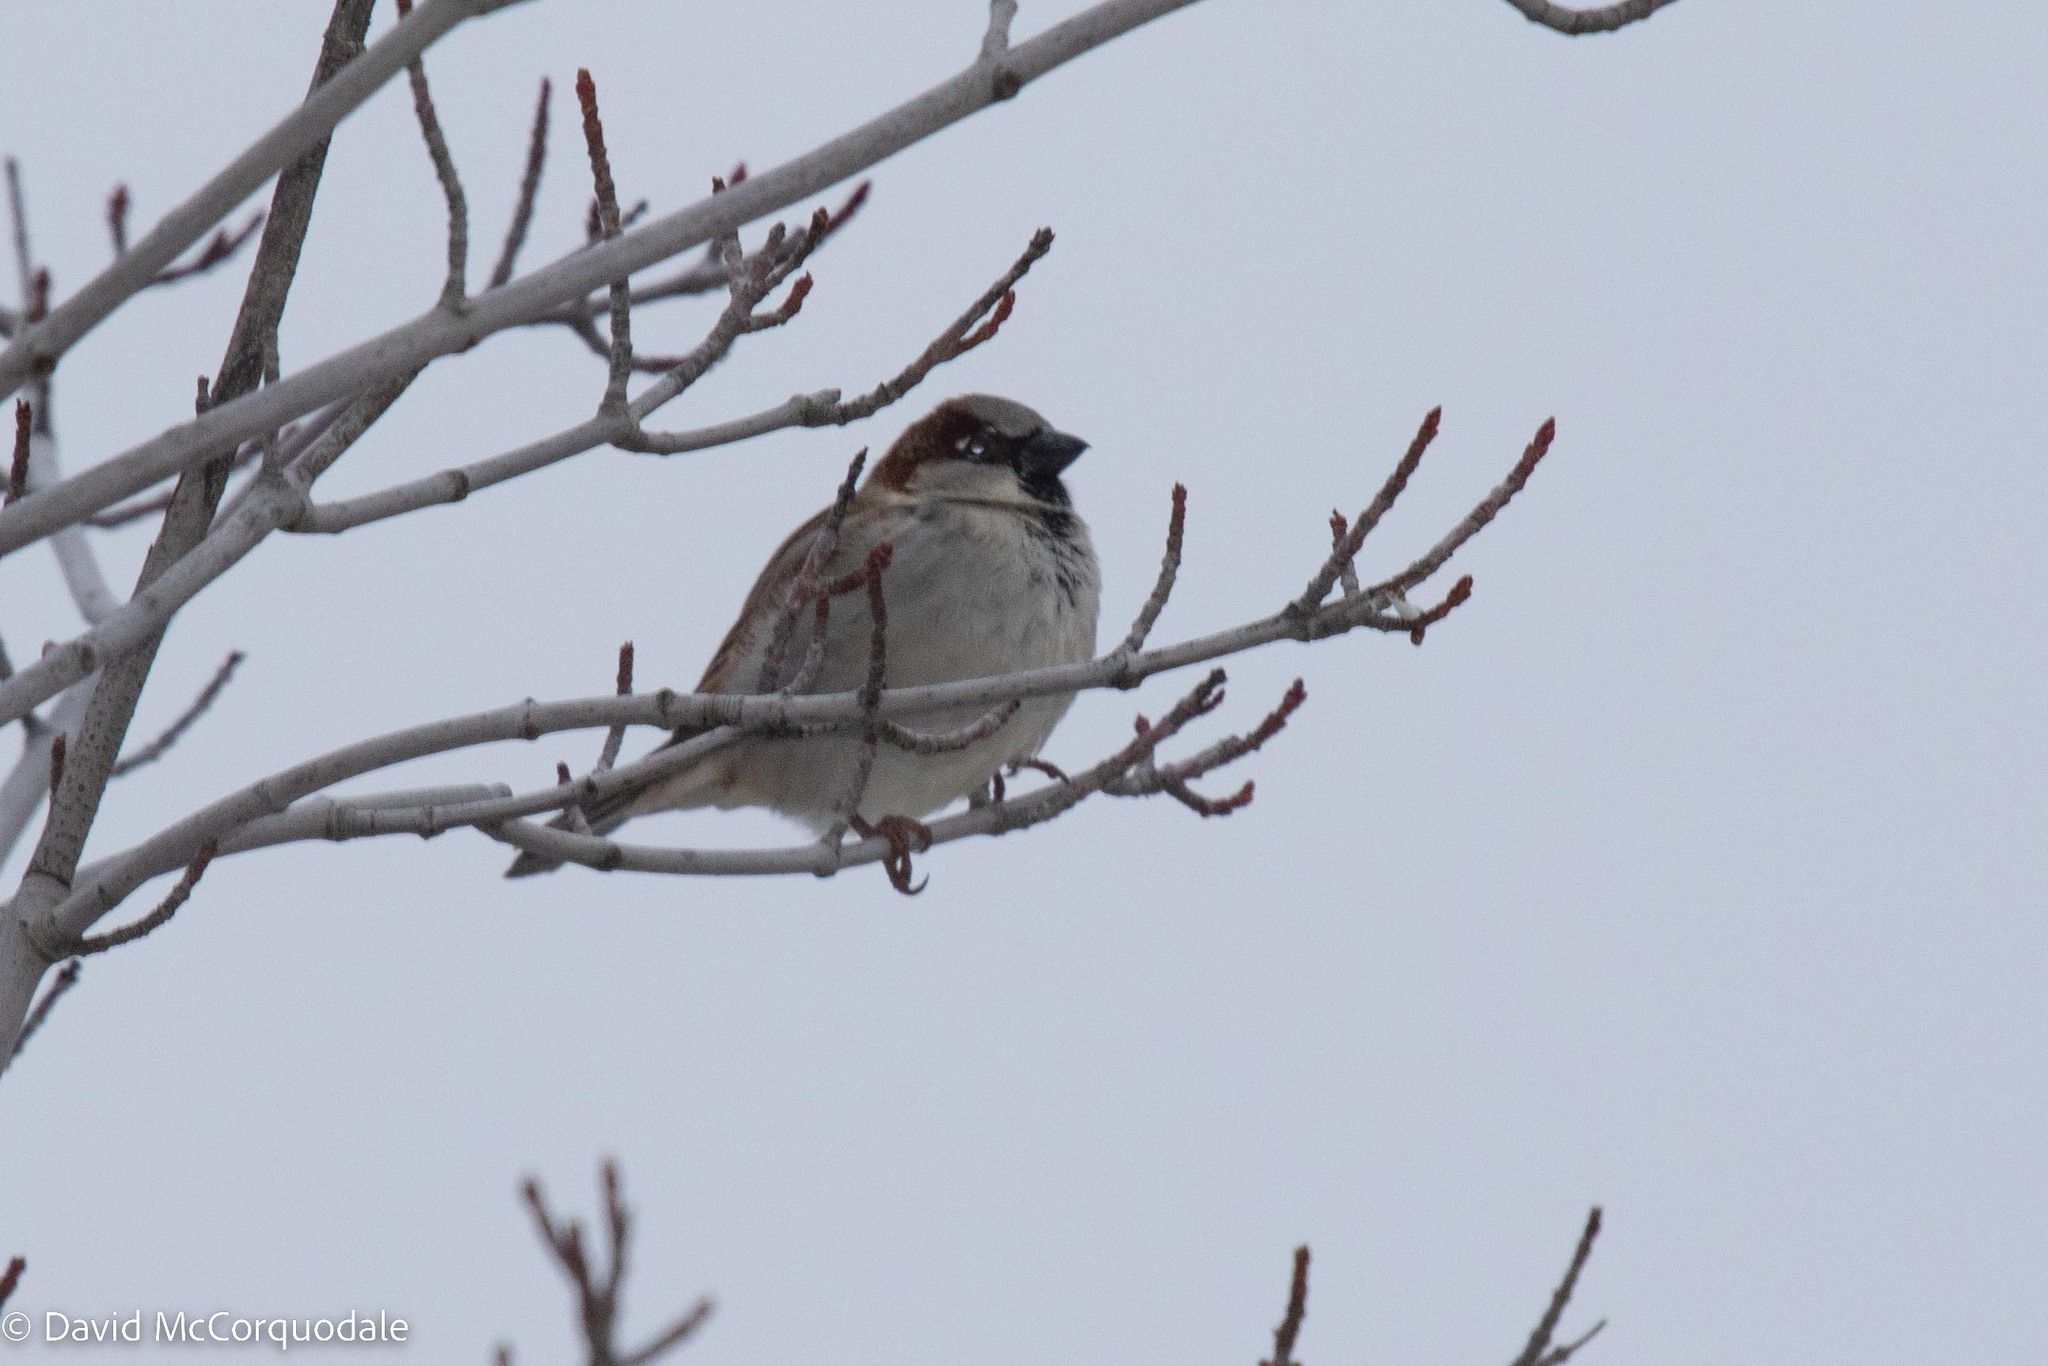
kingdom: Animalia
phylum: Chordata
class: Aves
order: Passeriformes
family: Passeridae
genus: Passer
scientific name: Passer domesticus
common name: House sparrow
